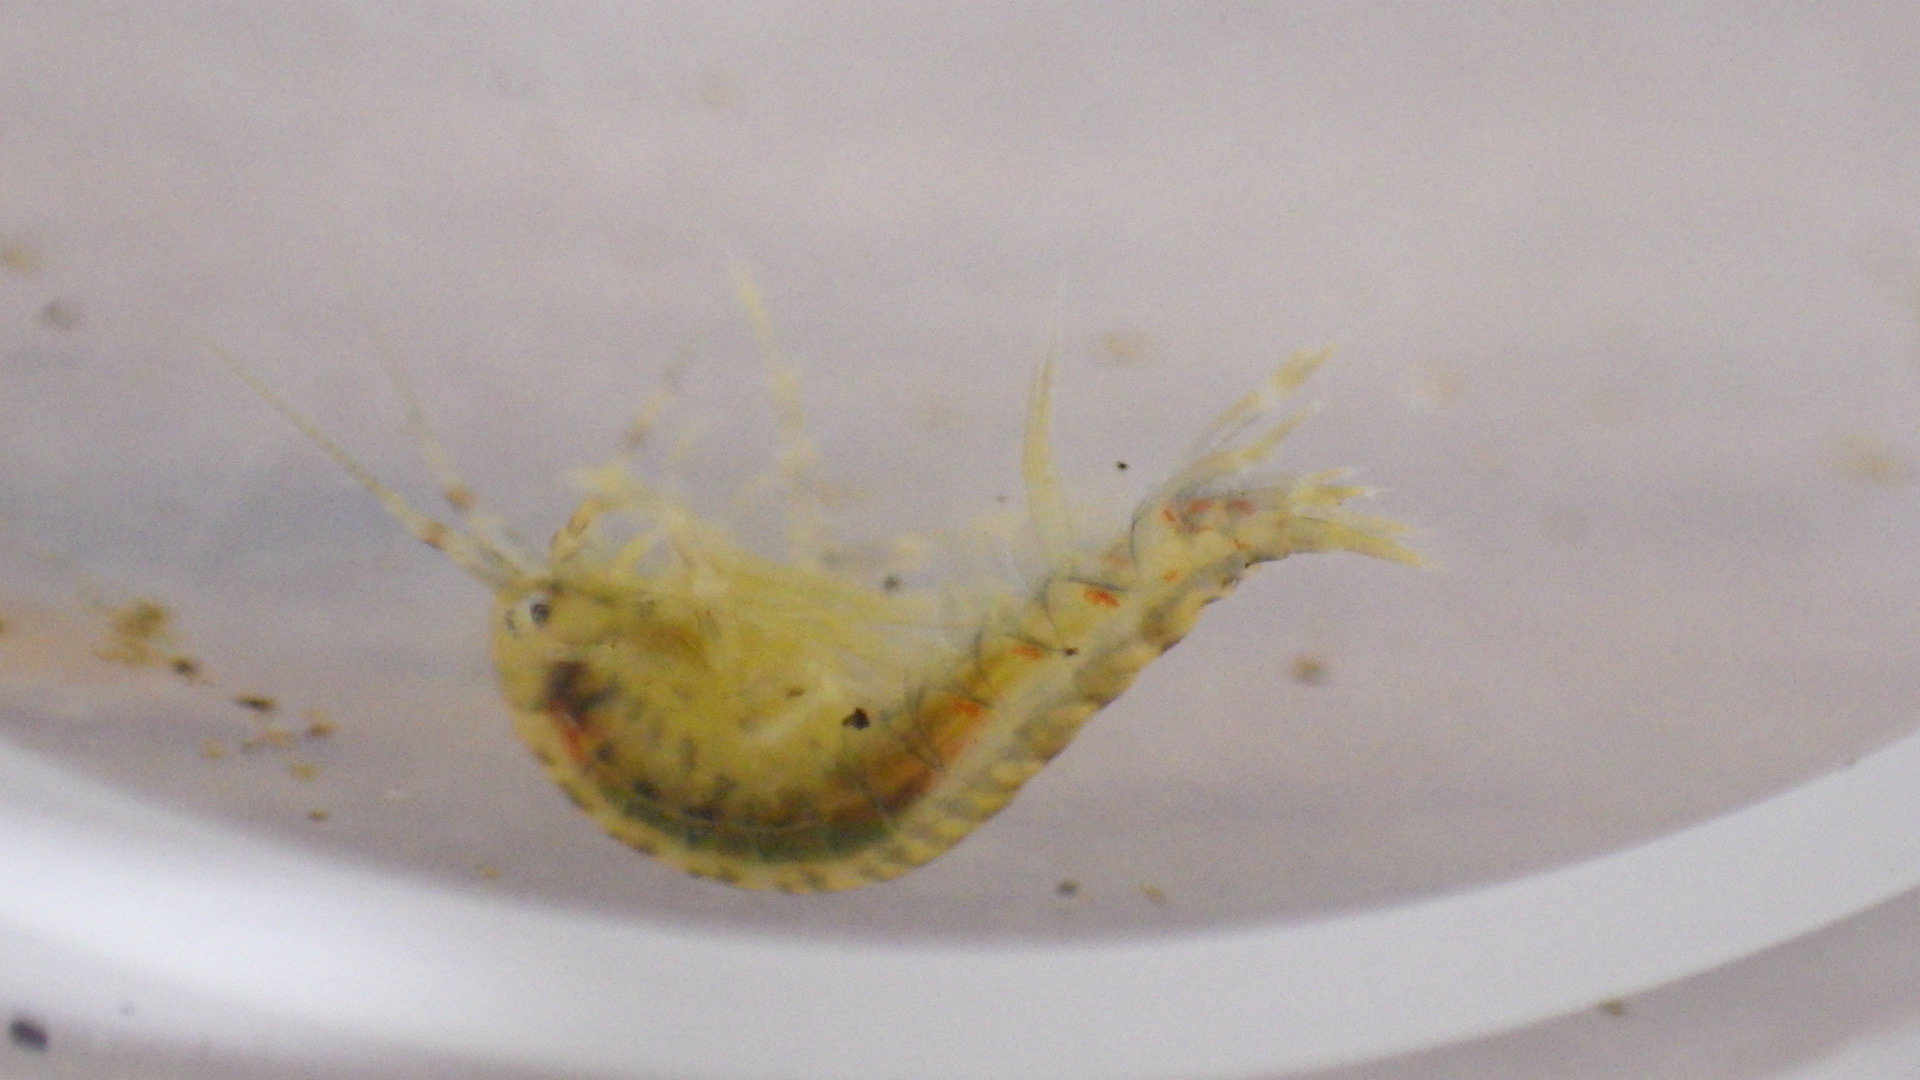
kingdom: Animalia
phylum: Arthropoda
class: Malacostraca
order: Amphipoda
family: Gammaridae
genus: Gammarus
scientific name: Gammarus fasciatus
